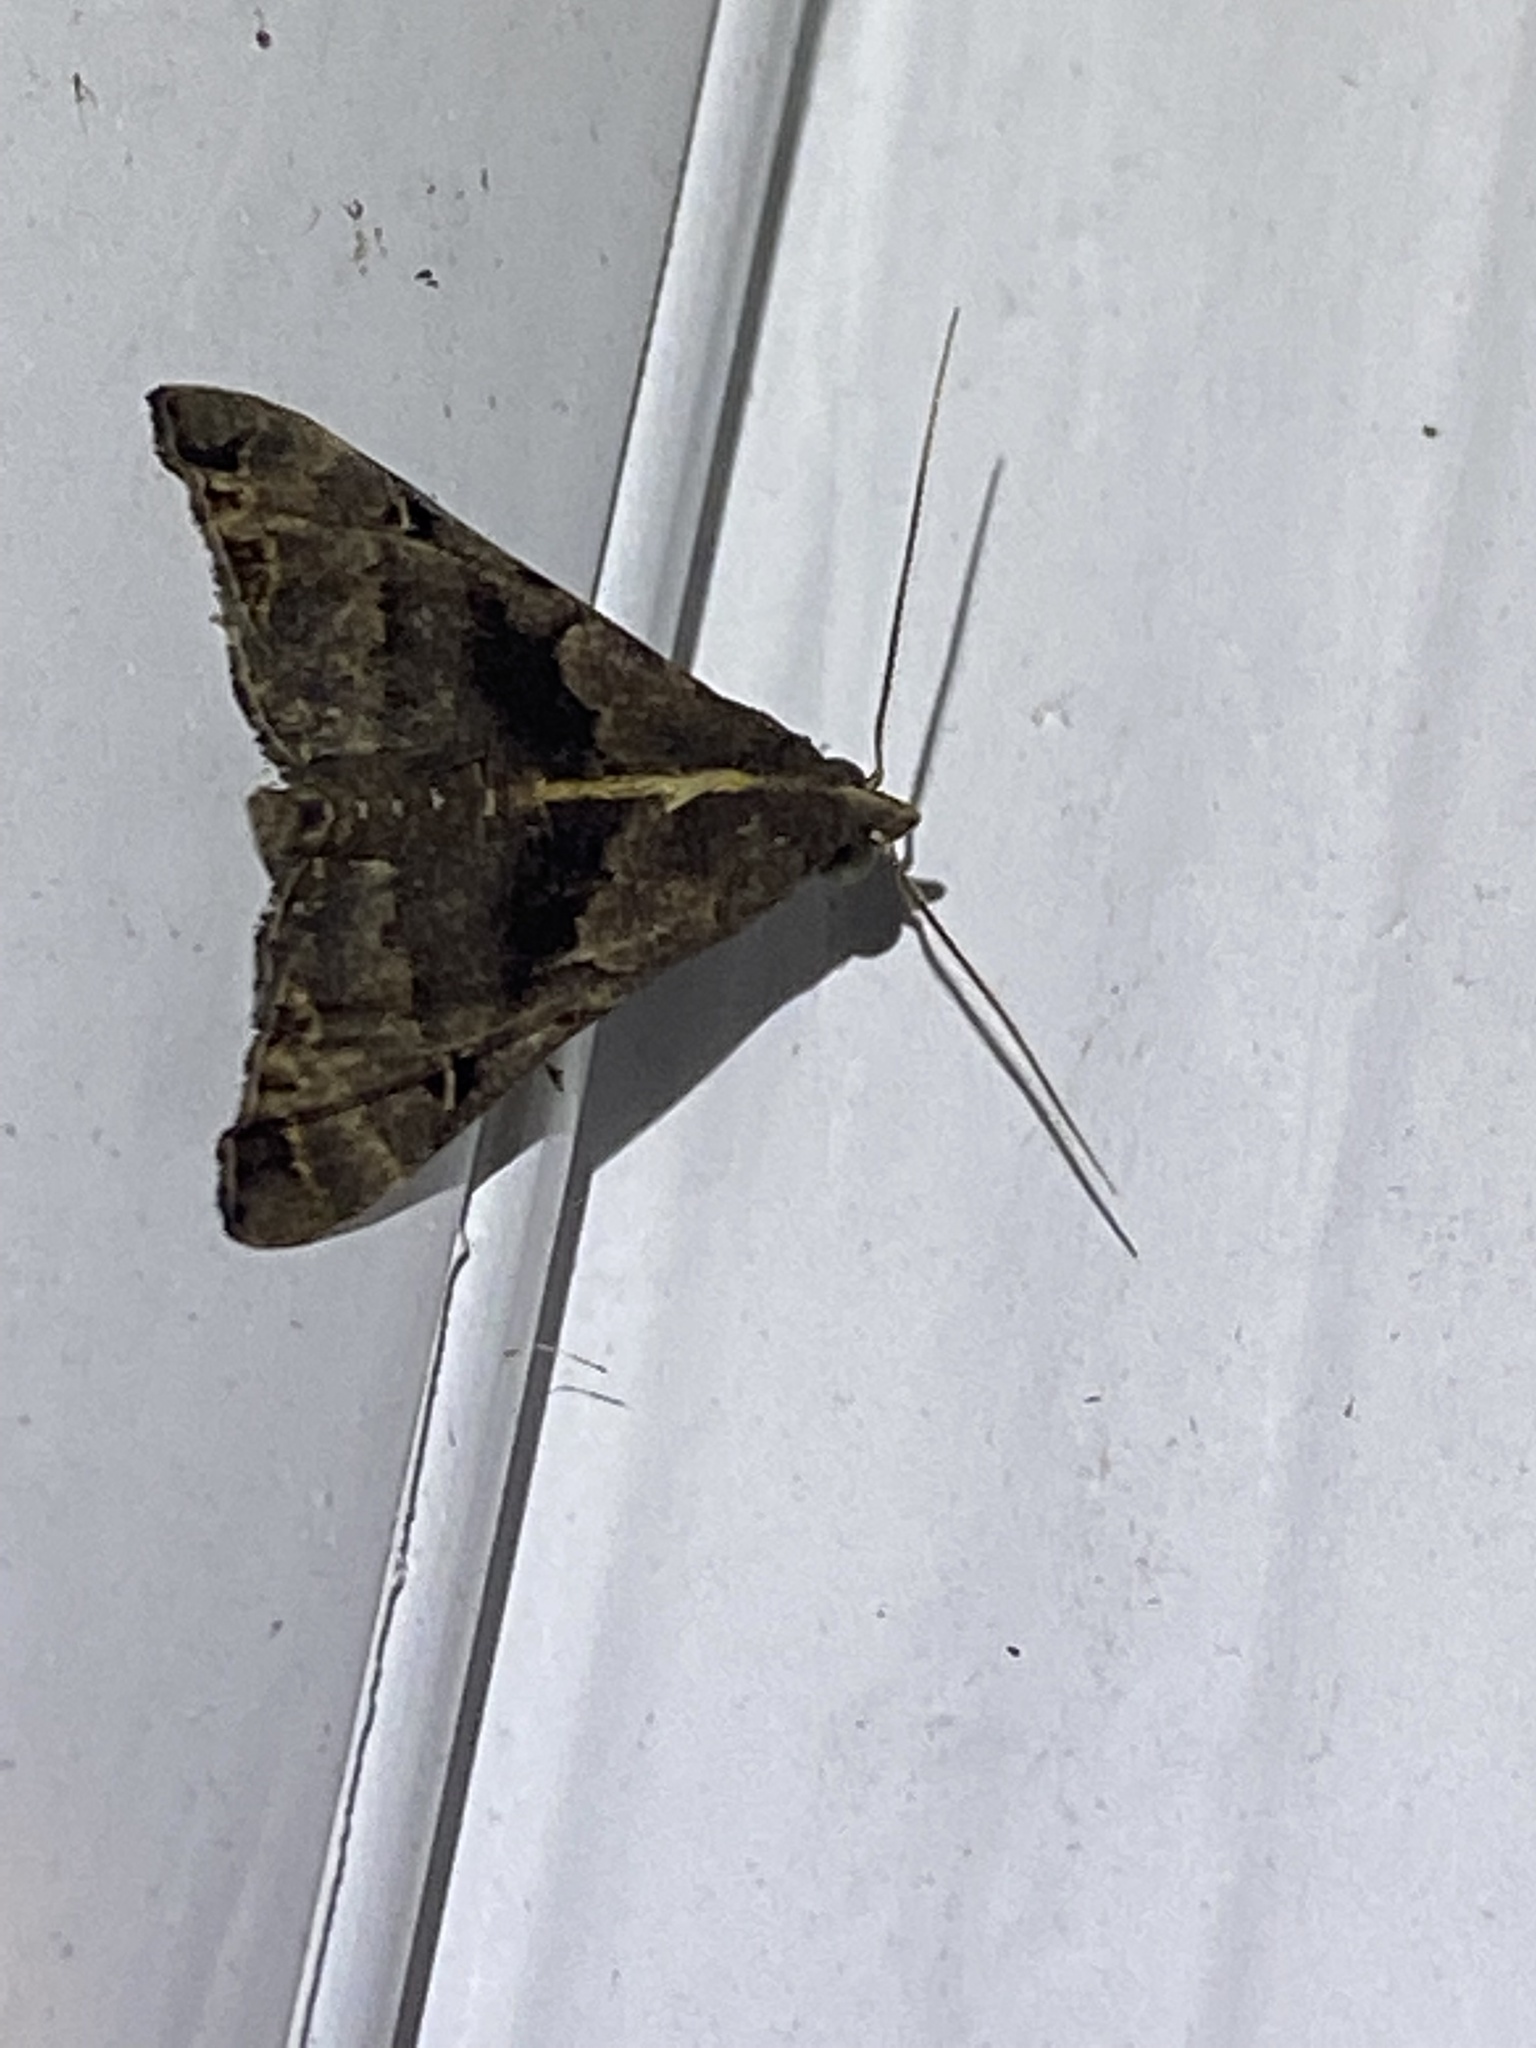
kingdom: Animalia
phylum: Arthropoda
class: Insecta
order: Lepidoptera
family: Erebidae
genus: Palthis
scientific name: Palthis asopialis
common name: Faint-spotted palthis moth
